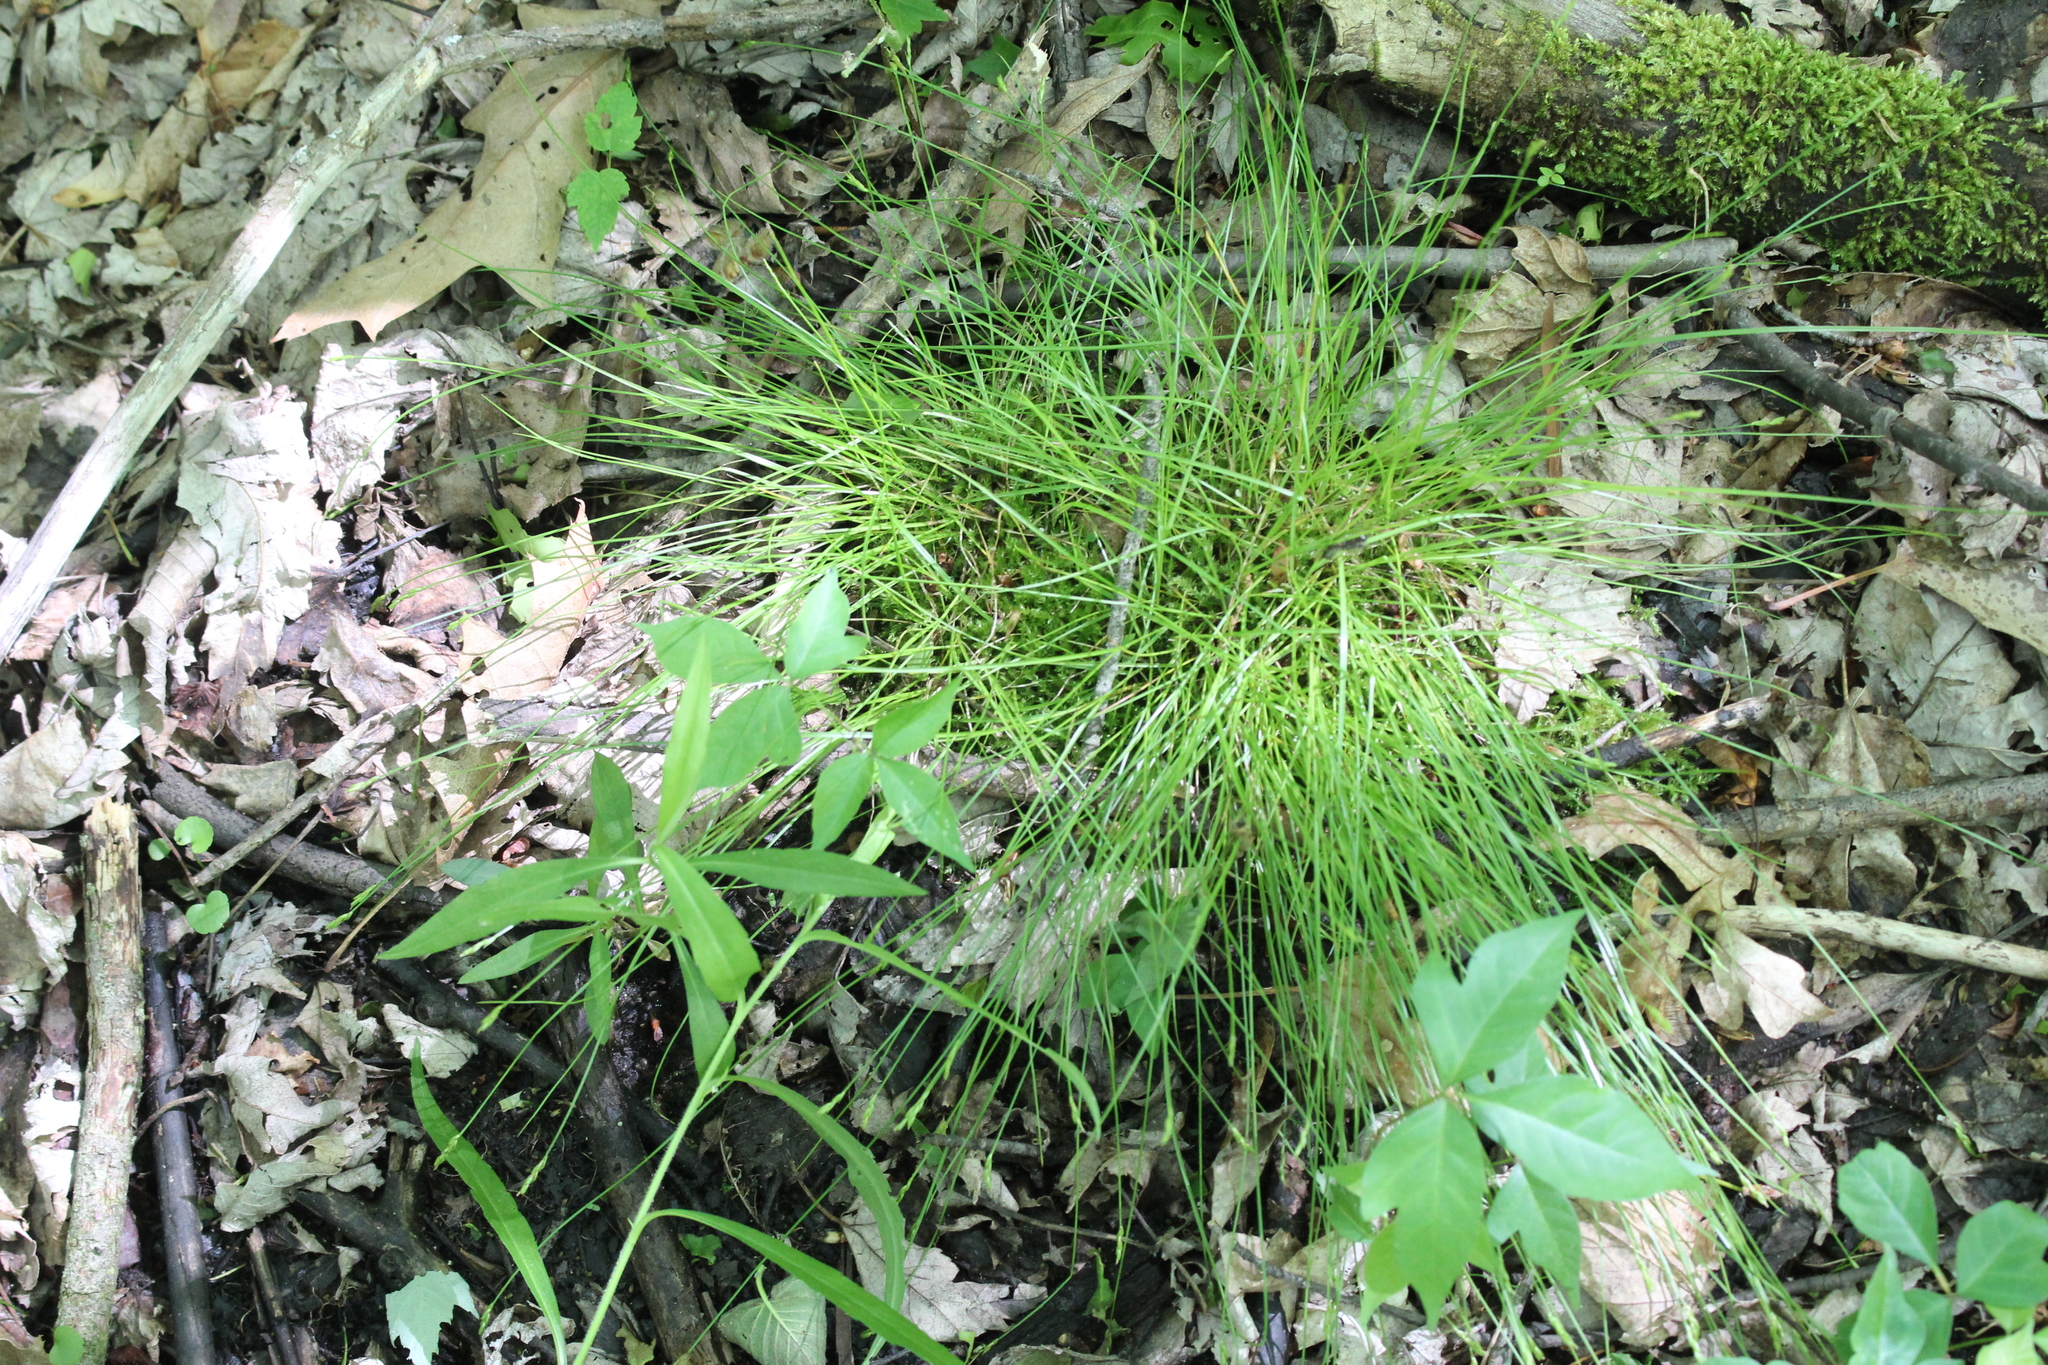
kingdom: Plantae
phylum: Tracheophyta
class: Liliopsida
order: Poales
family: Cyperaceae
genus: Carex
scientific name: Carex leptalea
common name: Bristly-stalked sedge
